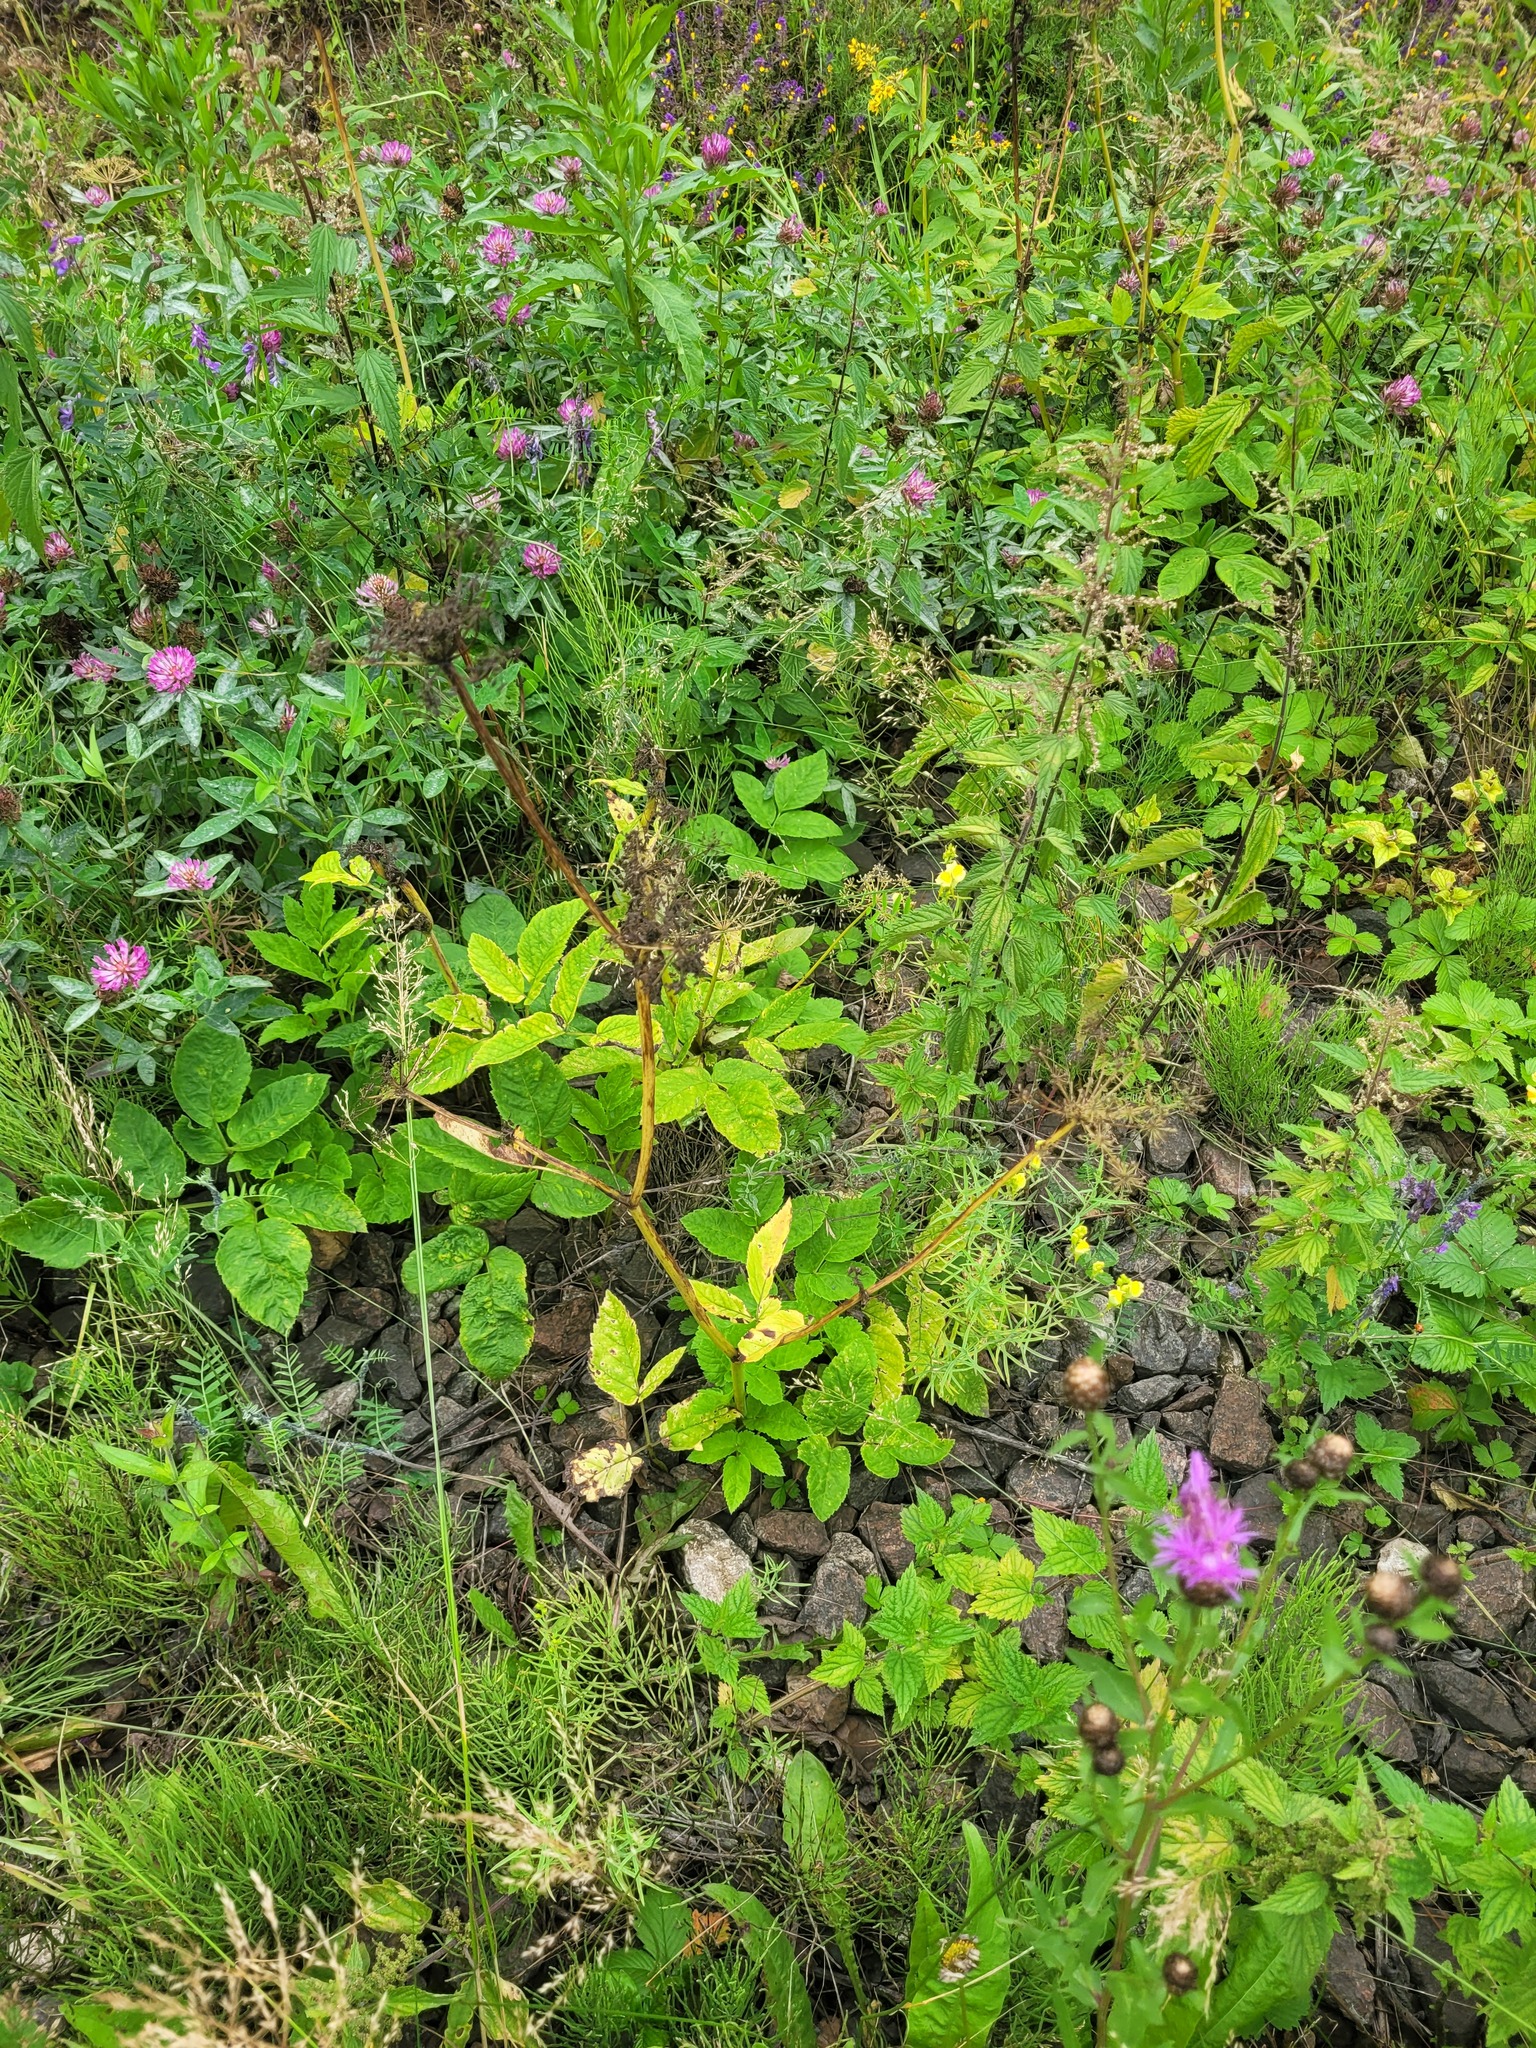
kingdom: Plantae
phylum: Tracheophyta
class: Magnoliopsida
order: Apiales
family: Apiaceae
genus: Aegopodium
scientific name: Aegopodium podagraria
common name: Ground-elder
